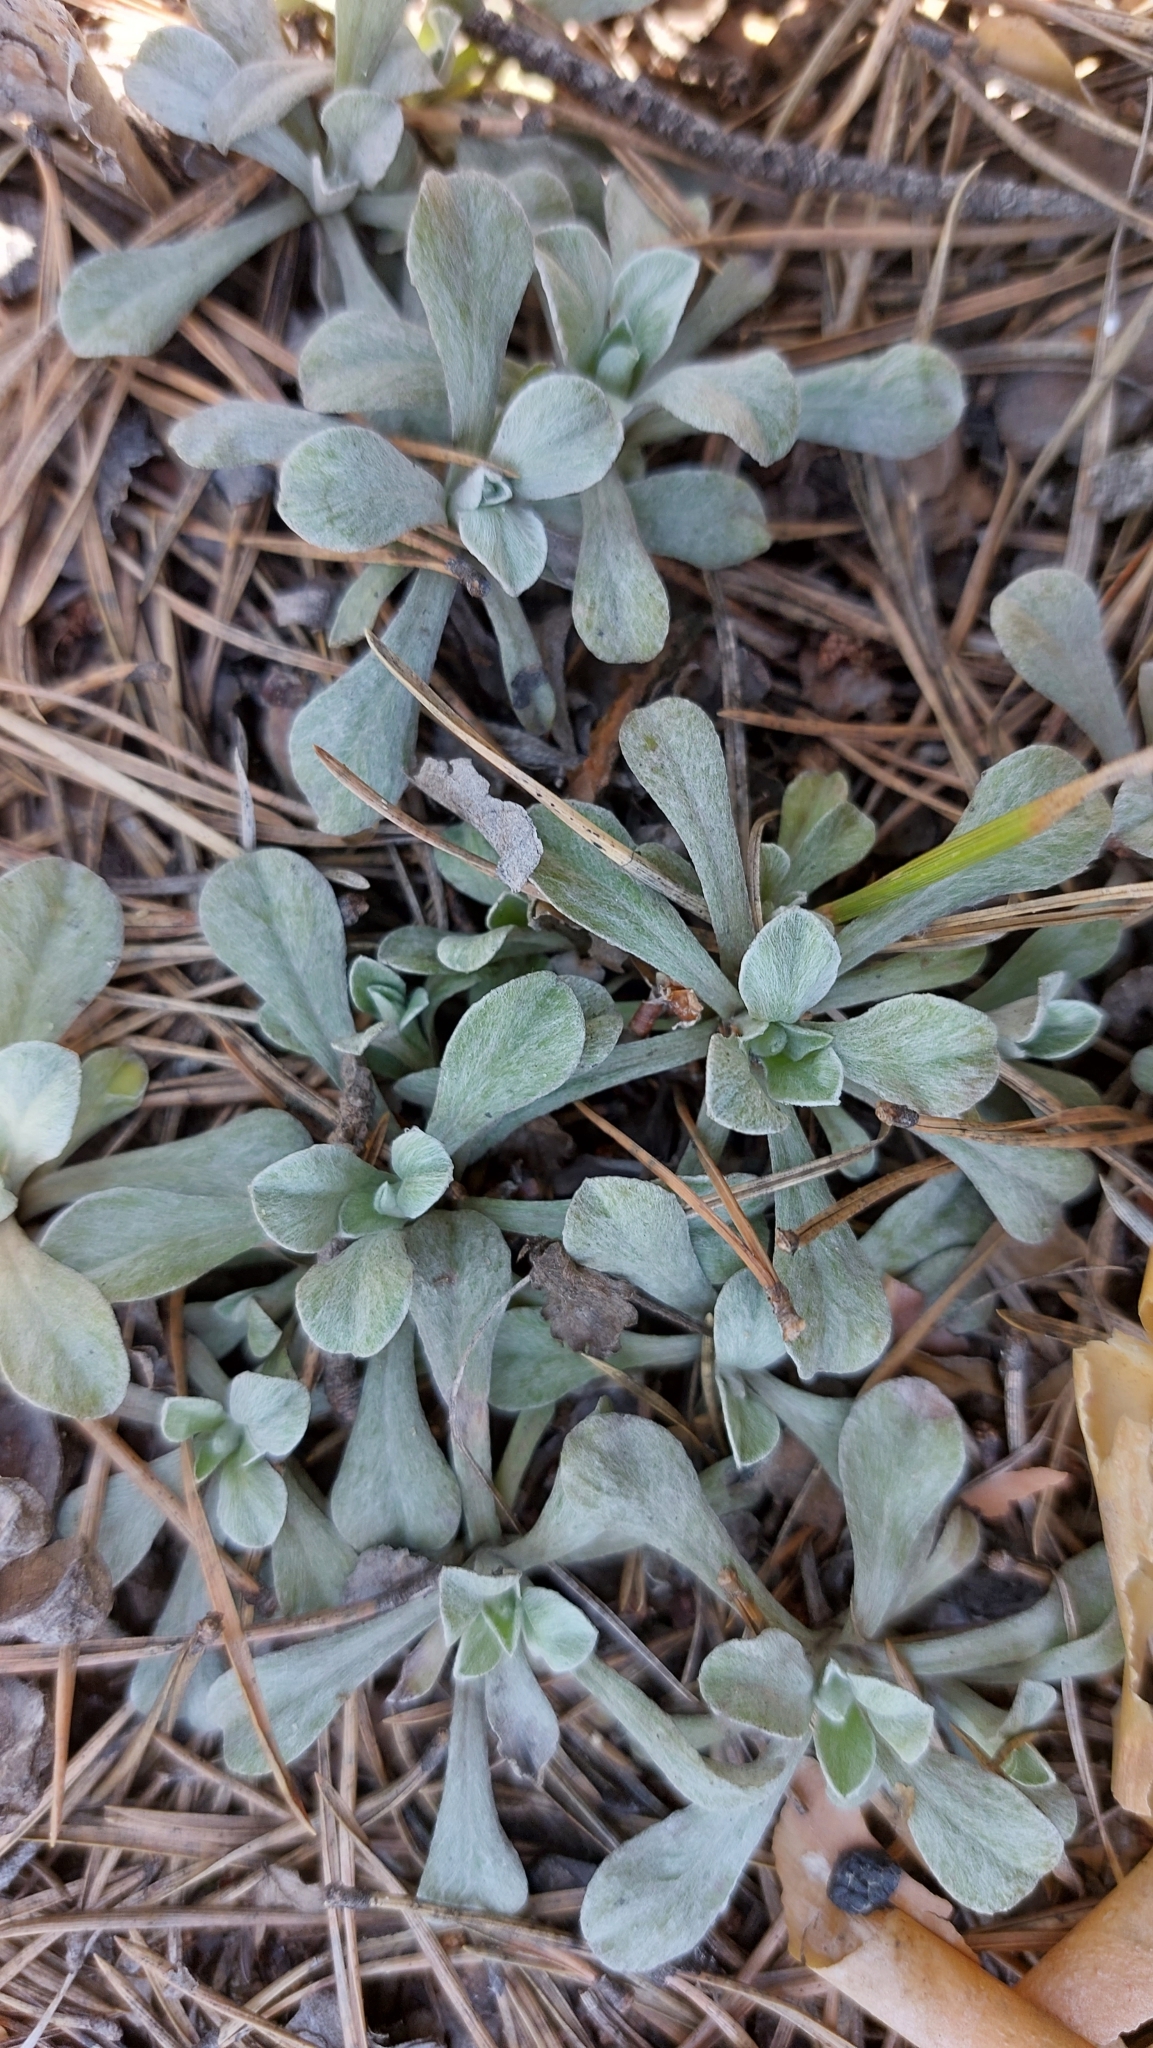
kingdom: Plantae
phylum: Tracheophyta
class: Magnoliopsida
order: Asterales
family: Asteraceae
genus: Antennaria
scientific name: Antennaria dioica
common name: Mountain everlasting
